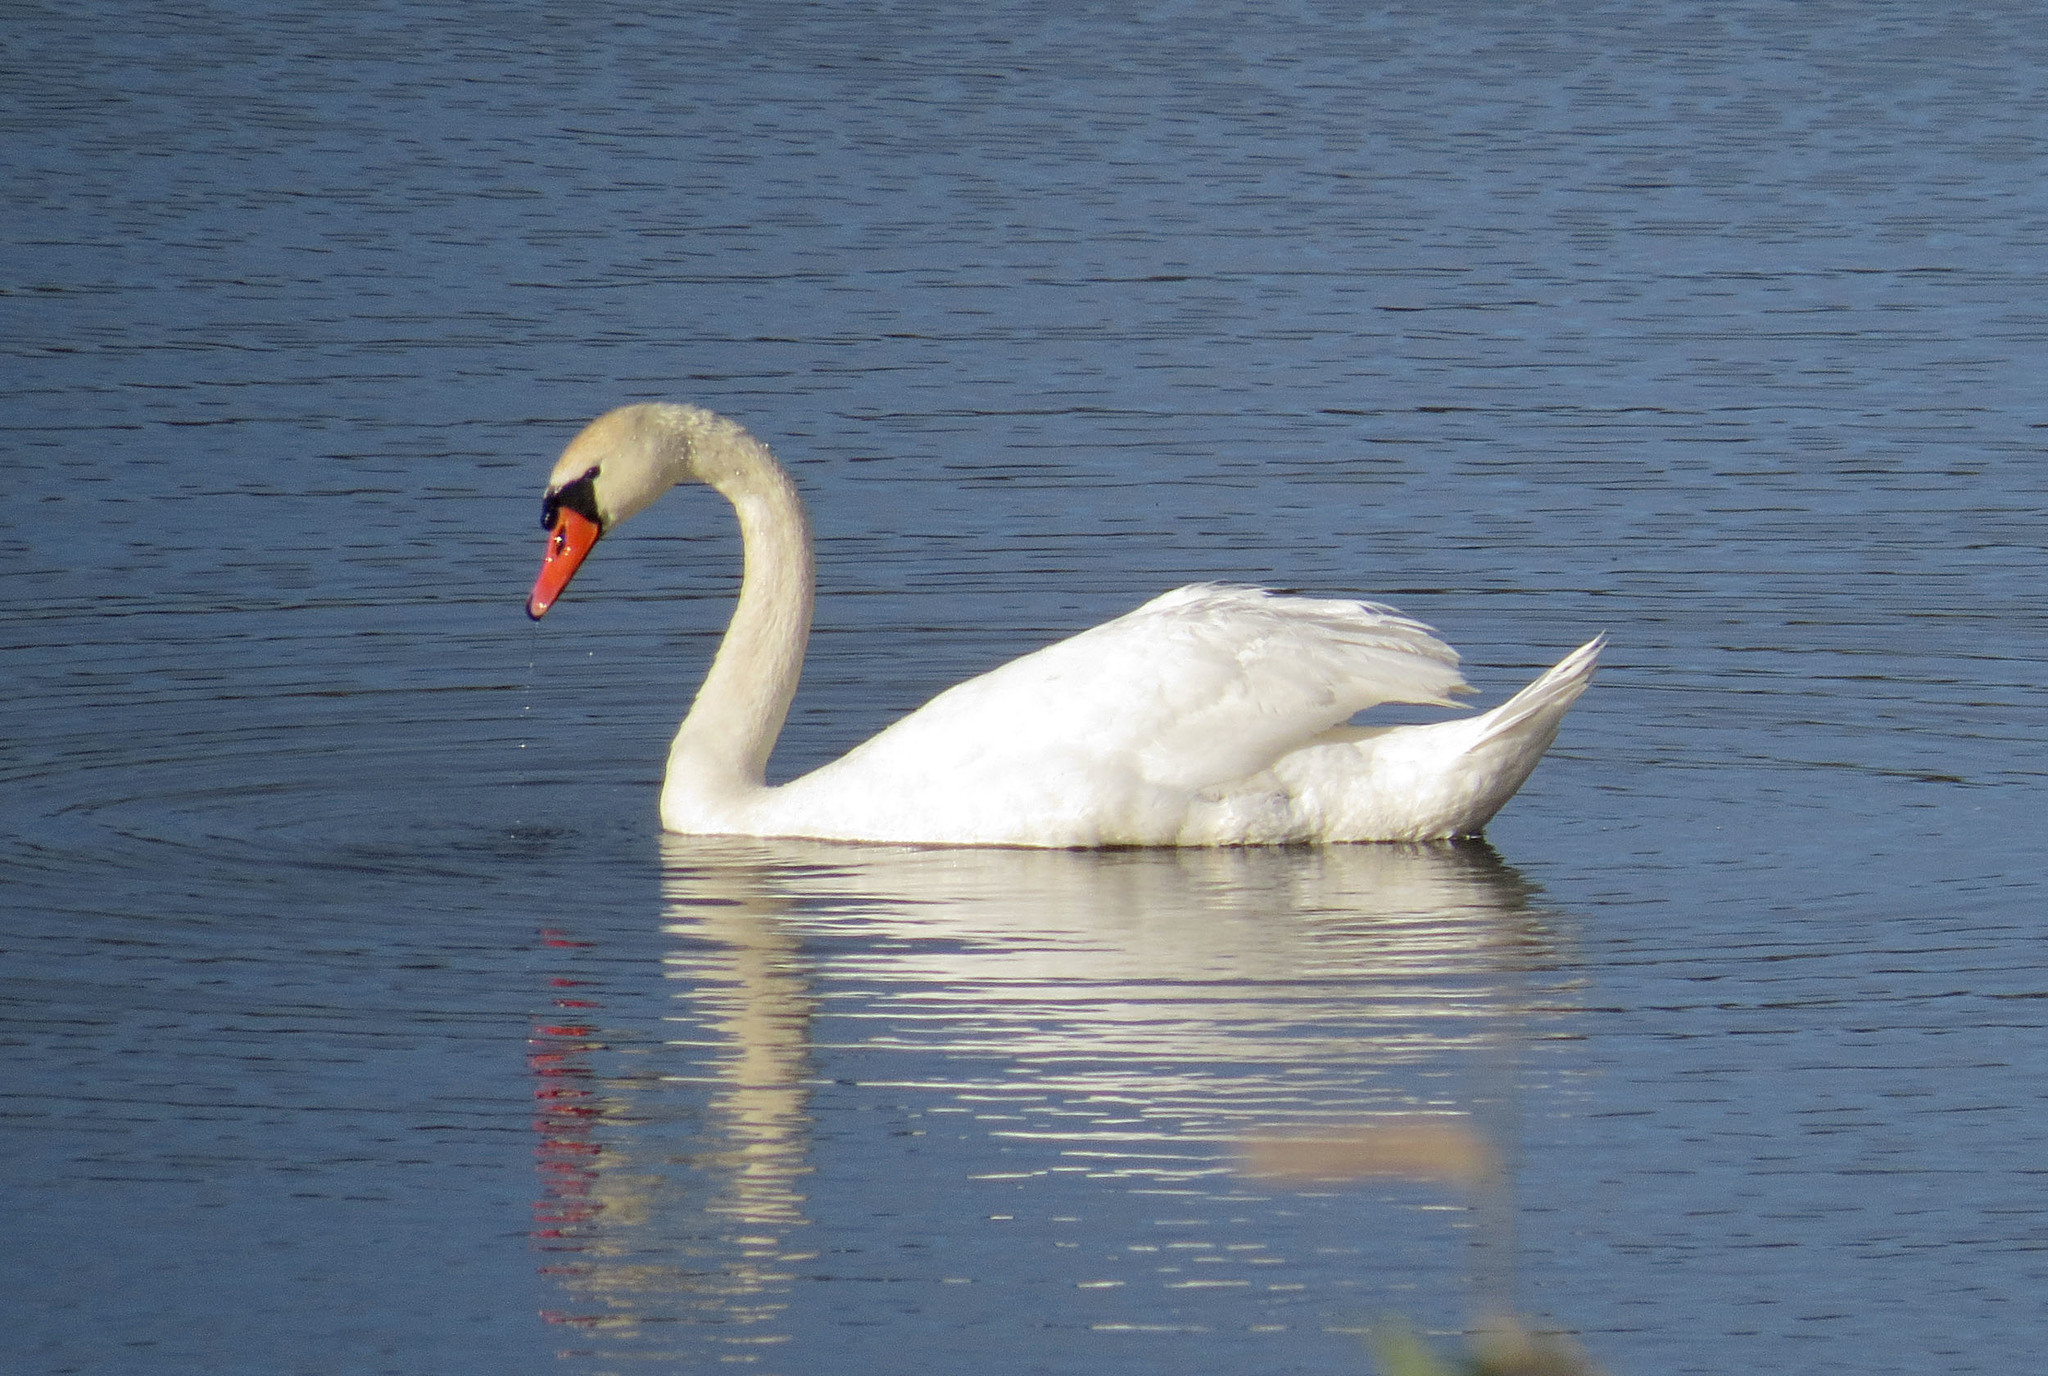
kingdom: Animalia
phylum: Chordata
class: Aves
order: Anseriformes
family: Anatidae
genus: Cygnus
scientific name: Cygnus olor
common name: Mute swan
